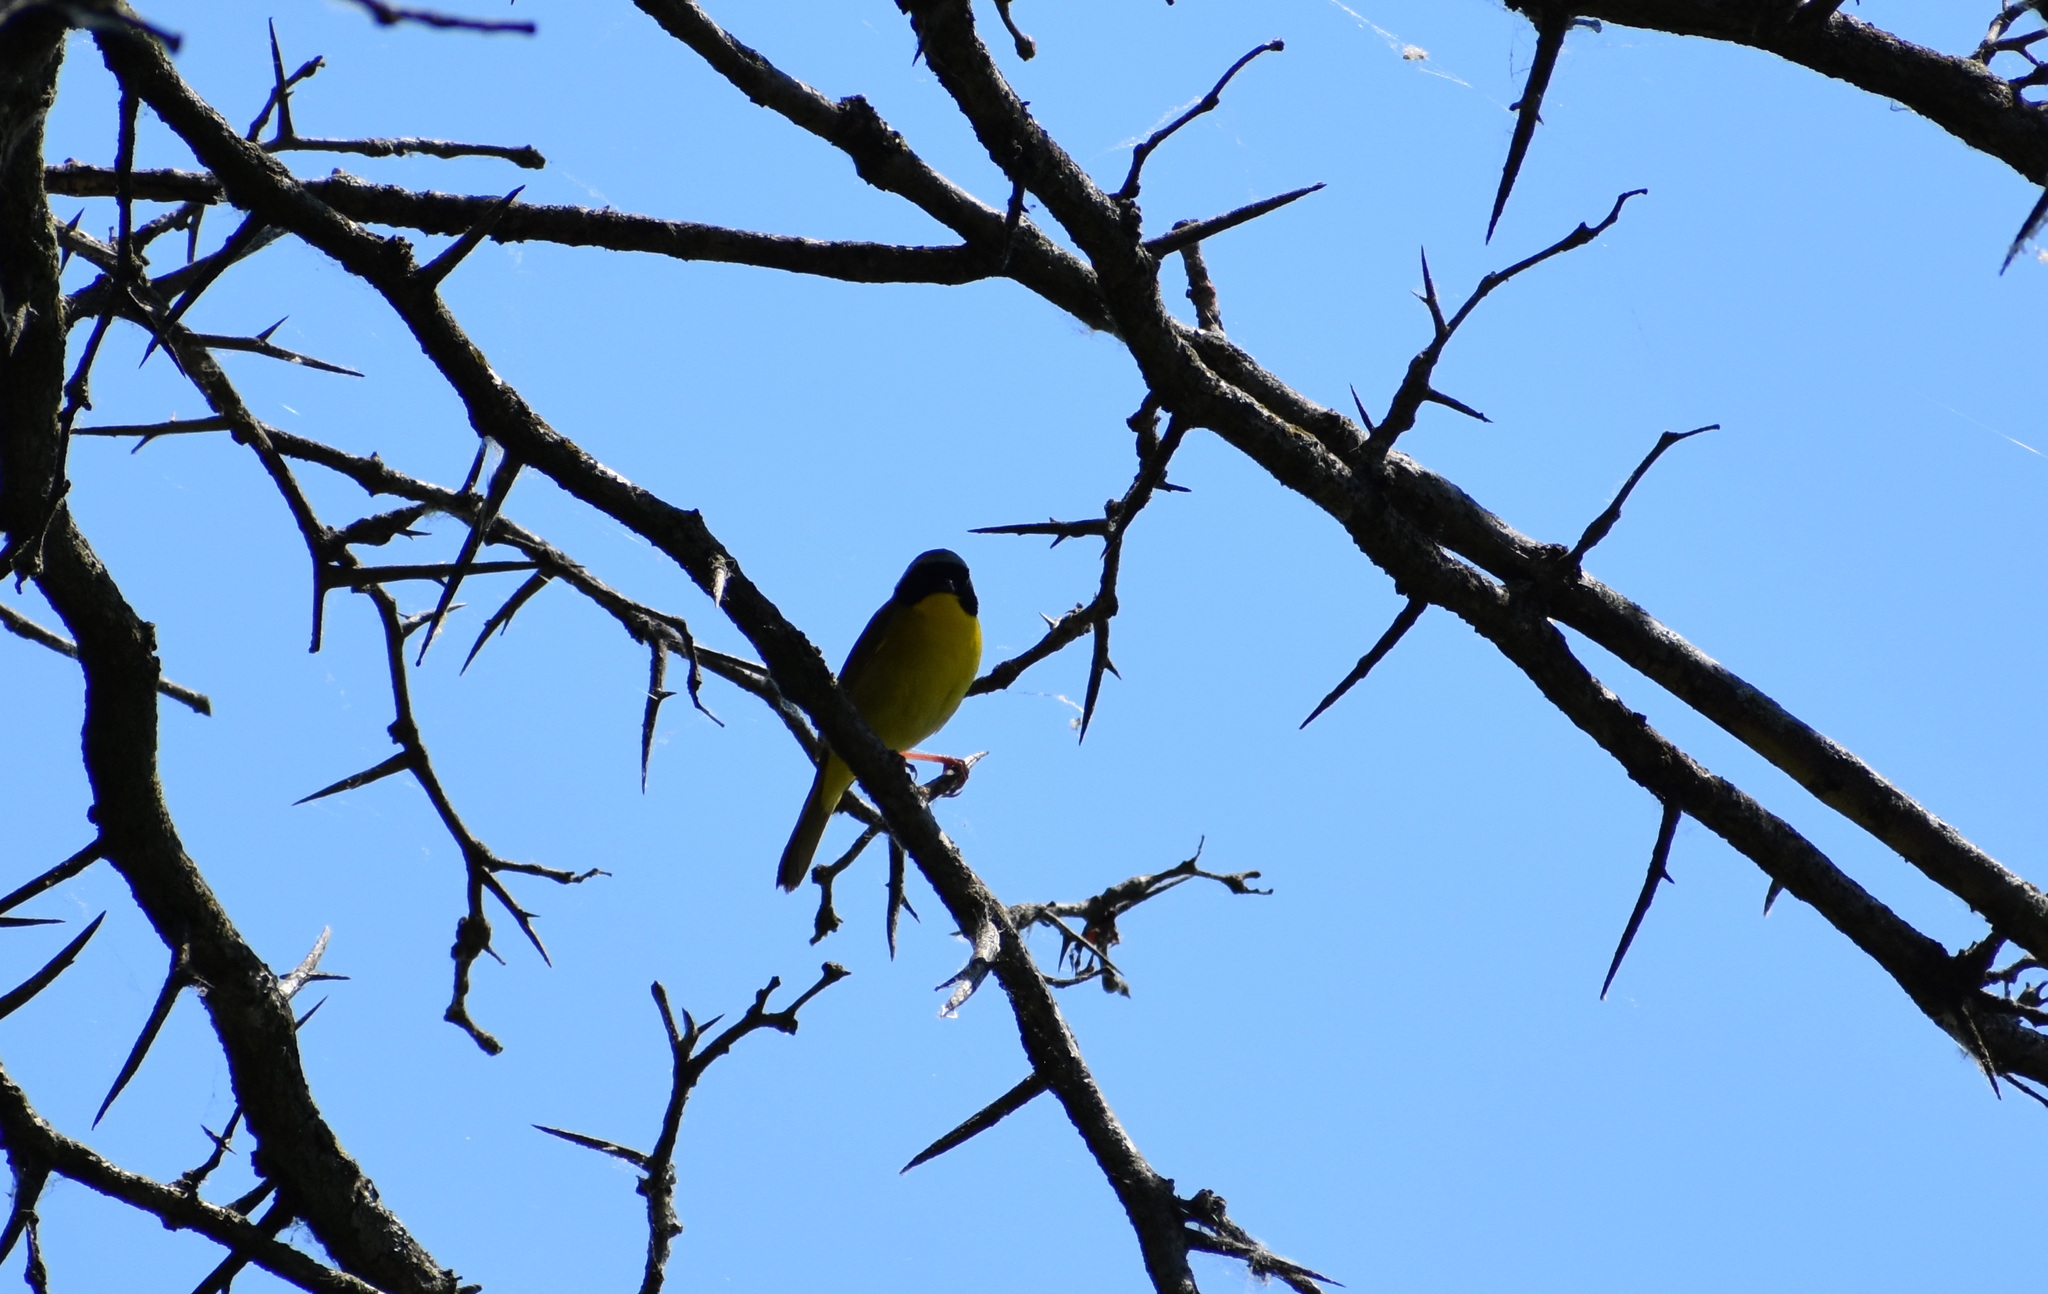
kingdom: Animalia
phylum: Chordata
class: Aves
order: Passeriformes
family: Parulidae
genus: Geothlypis
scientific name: Geothlypis trichas
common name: Common yellowthroat
